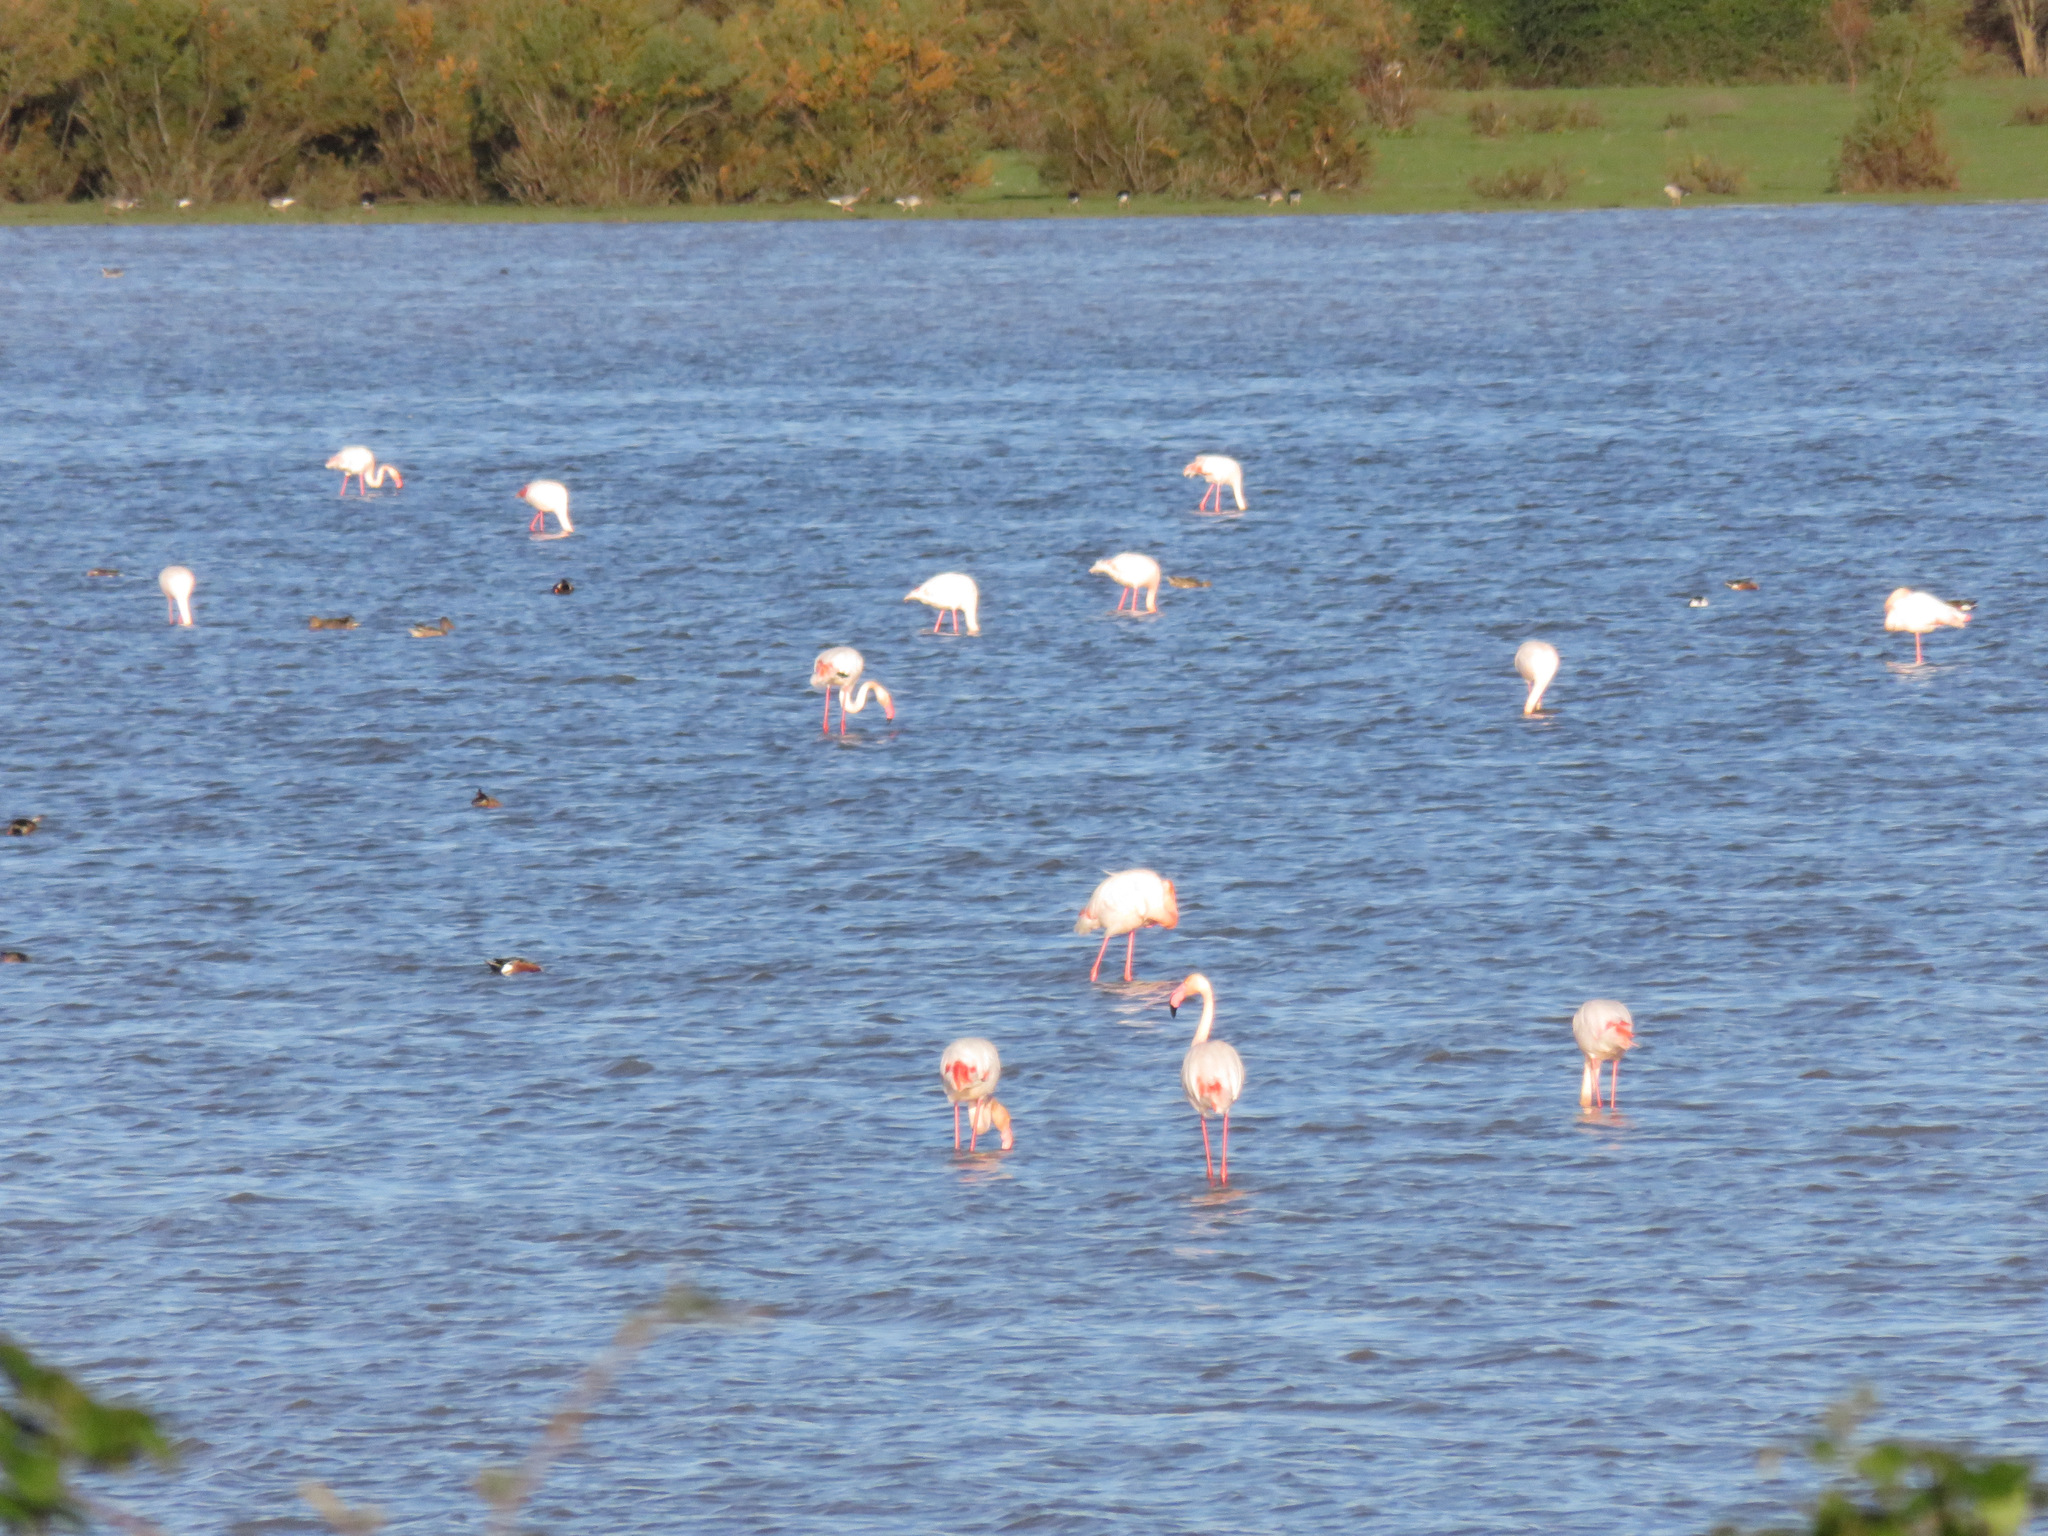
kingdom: Animalia
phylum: Chordata
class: Aves
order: Phoenicopteriformes
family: Phoenicopteridae
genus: Phoenicopterus
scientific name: Phoenicopterus roseus
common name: Greater flamingo
